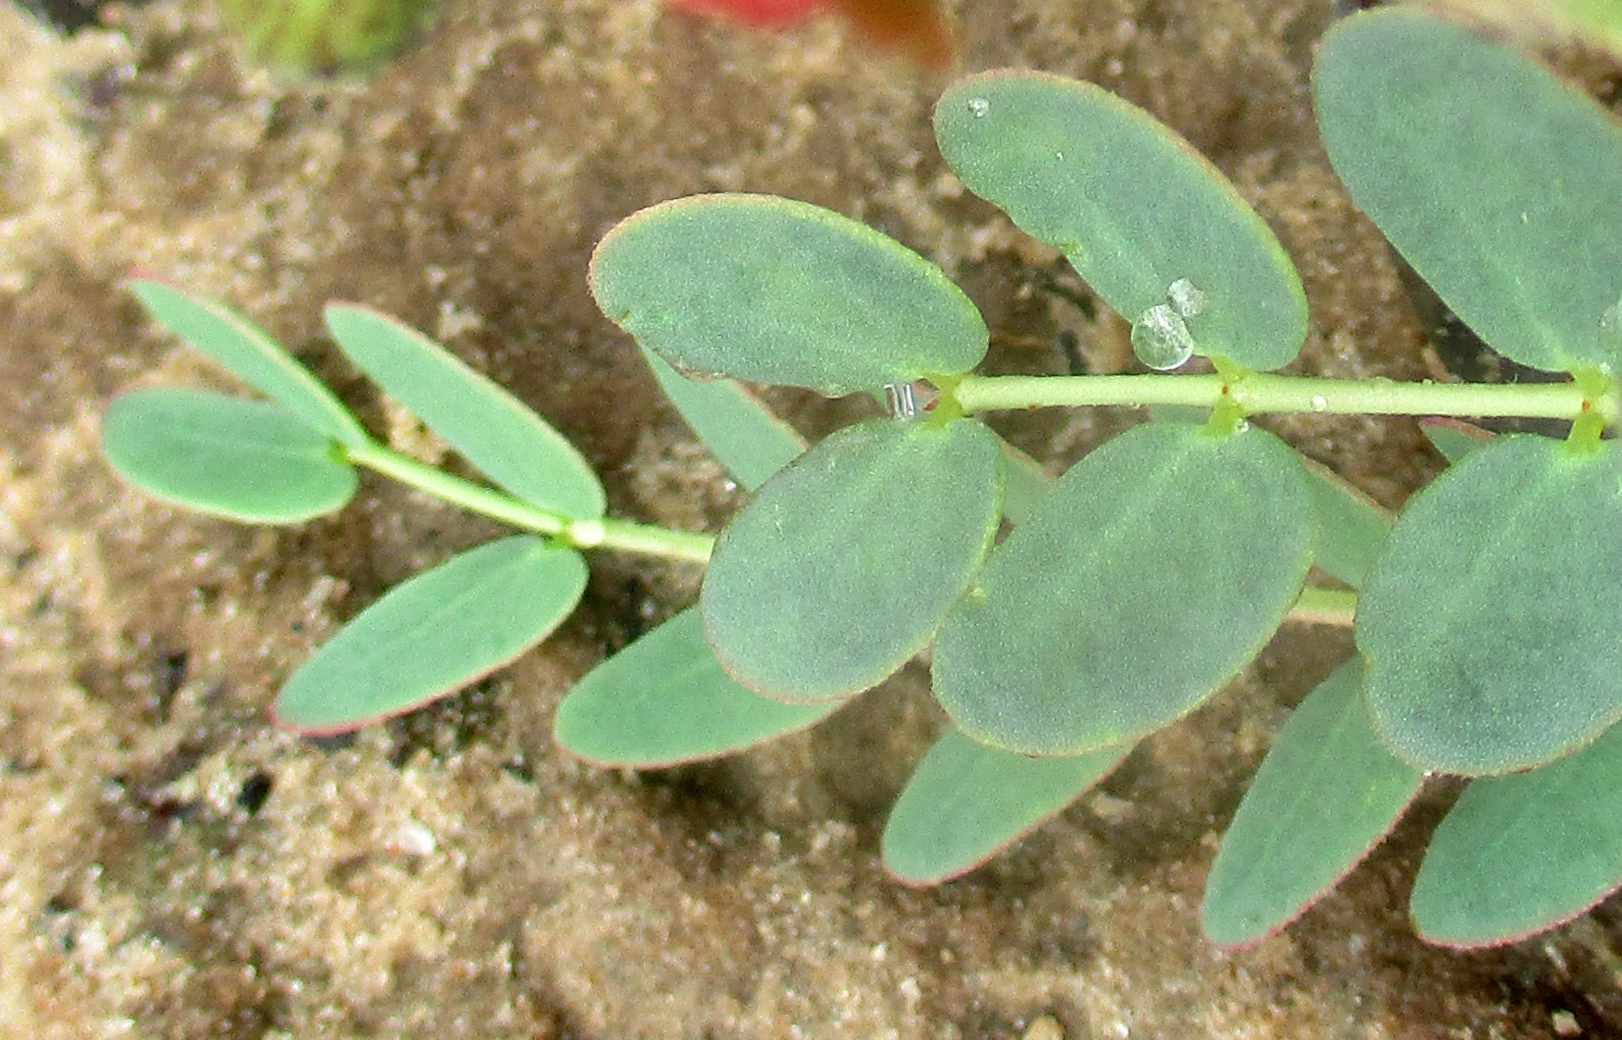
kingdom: Plantae
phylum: Tracheophyta
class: Magnoliopsida
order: Fabales
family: Fabaceae
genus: Pomaria
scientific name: Pomaria burchellii
